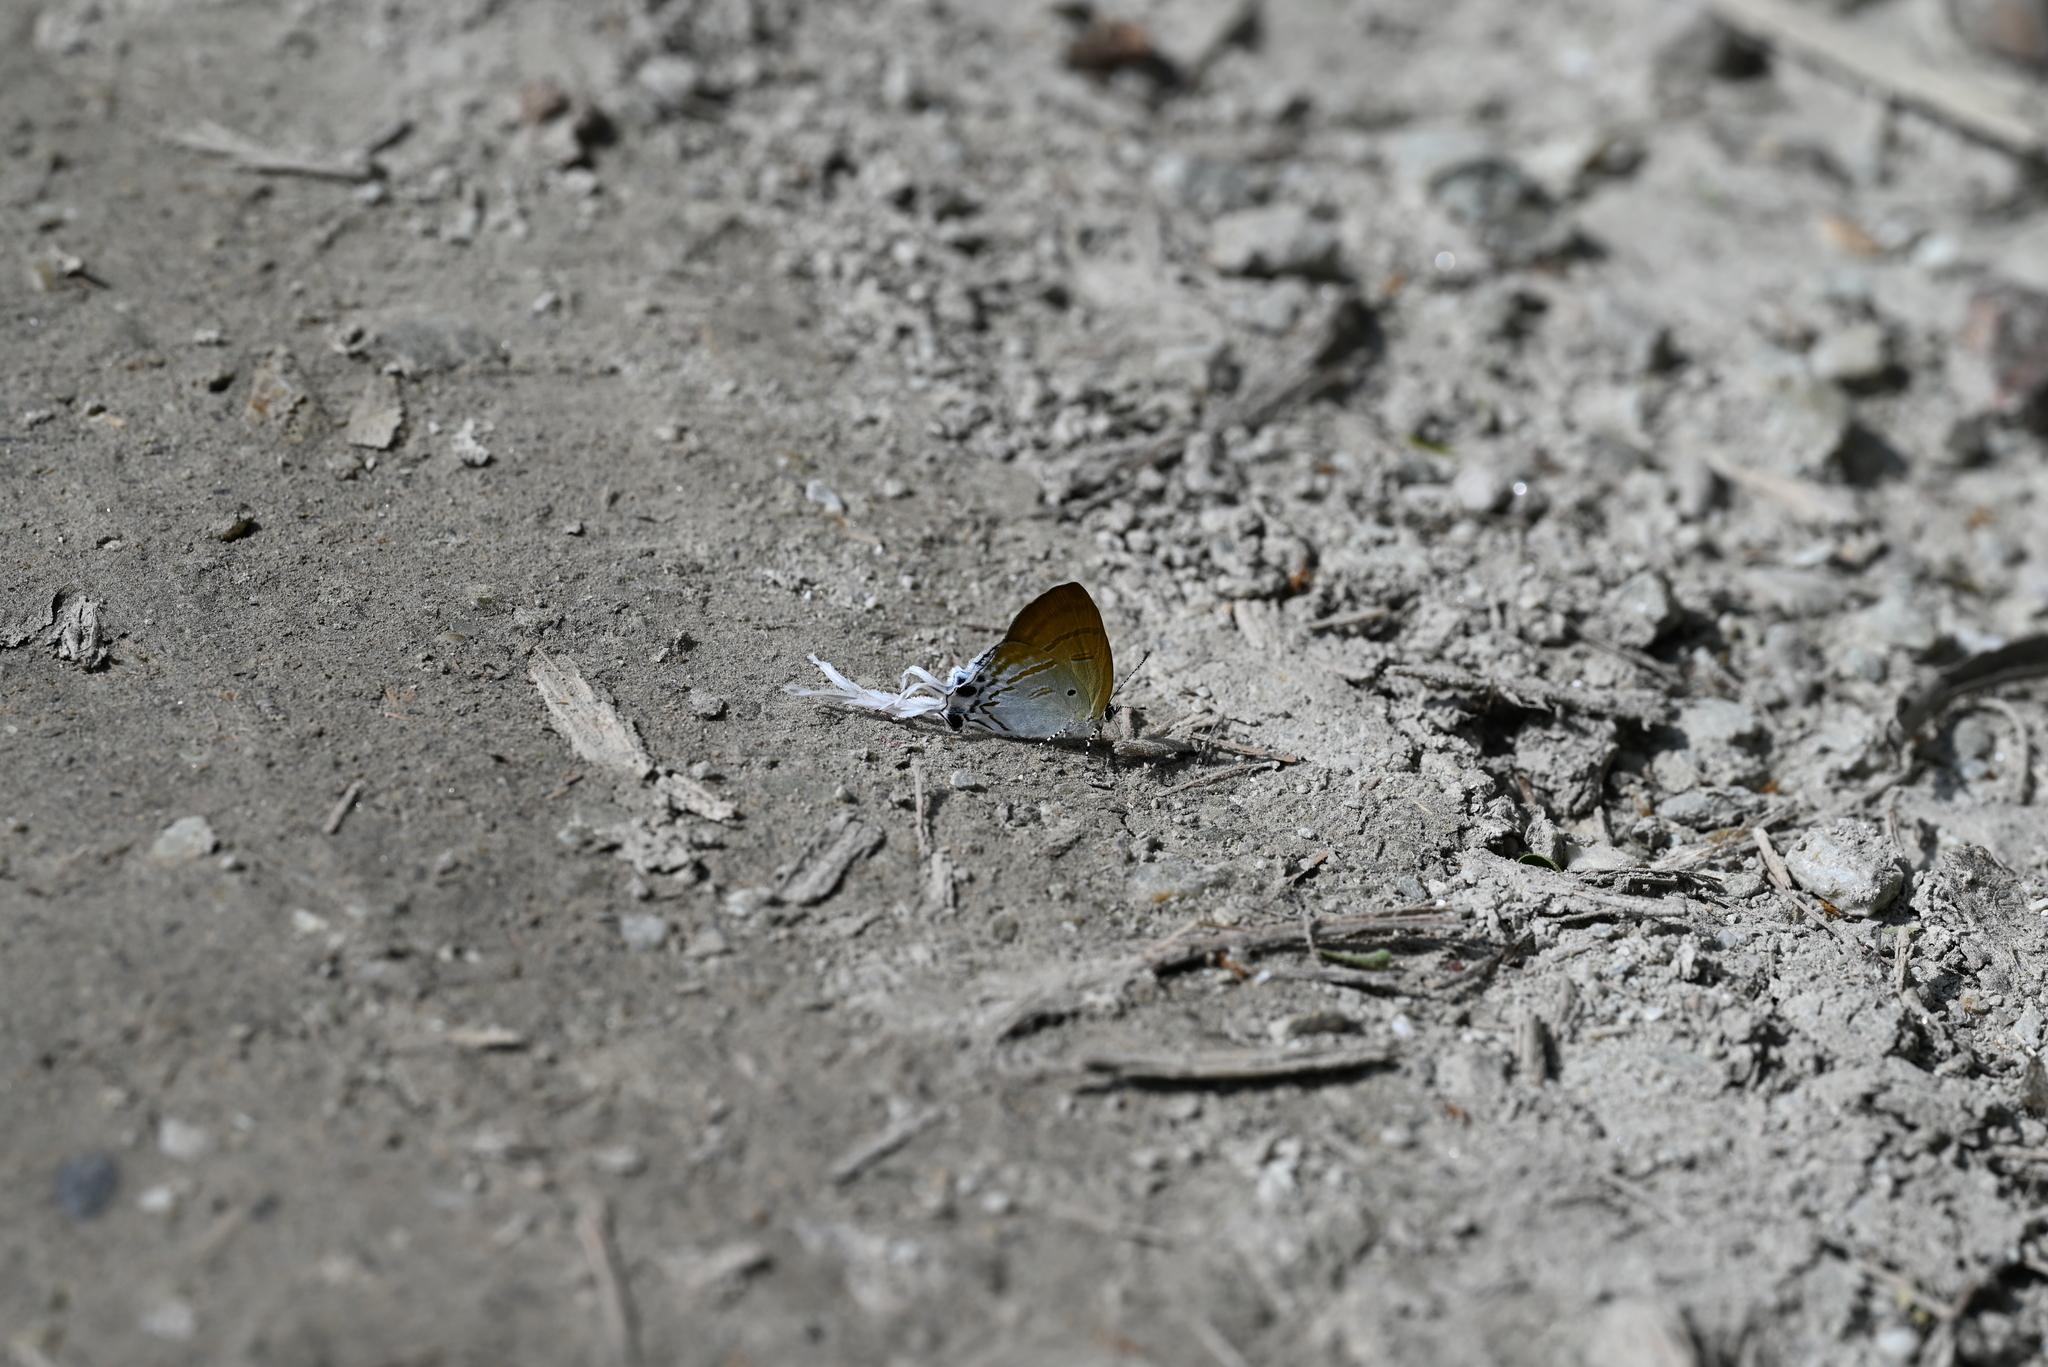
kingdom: Animalia
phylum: Arthropoda
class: Insecta
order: Lepidoptera
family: Lycaenidae
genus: Zeltus
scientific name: Zeltus amasa
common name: Fluffy tit
